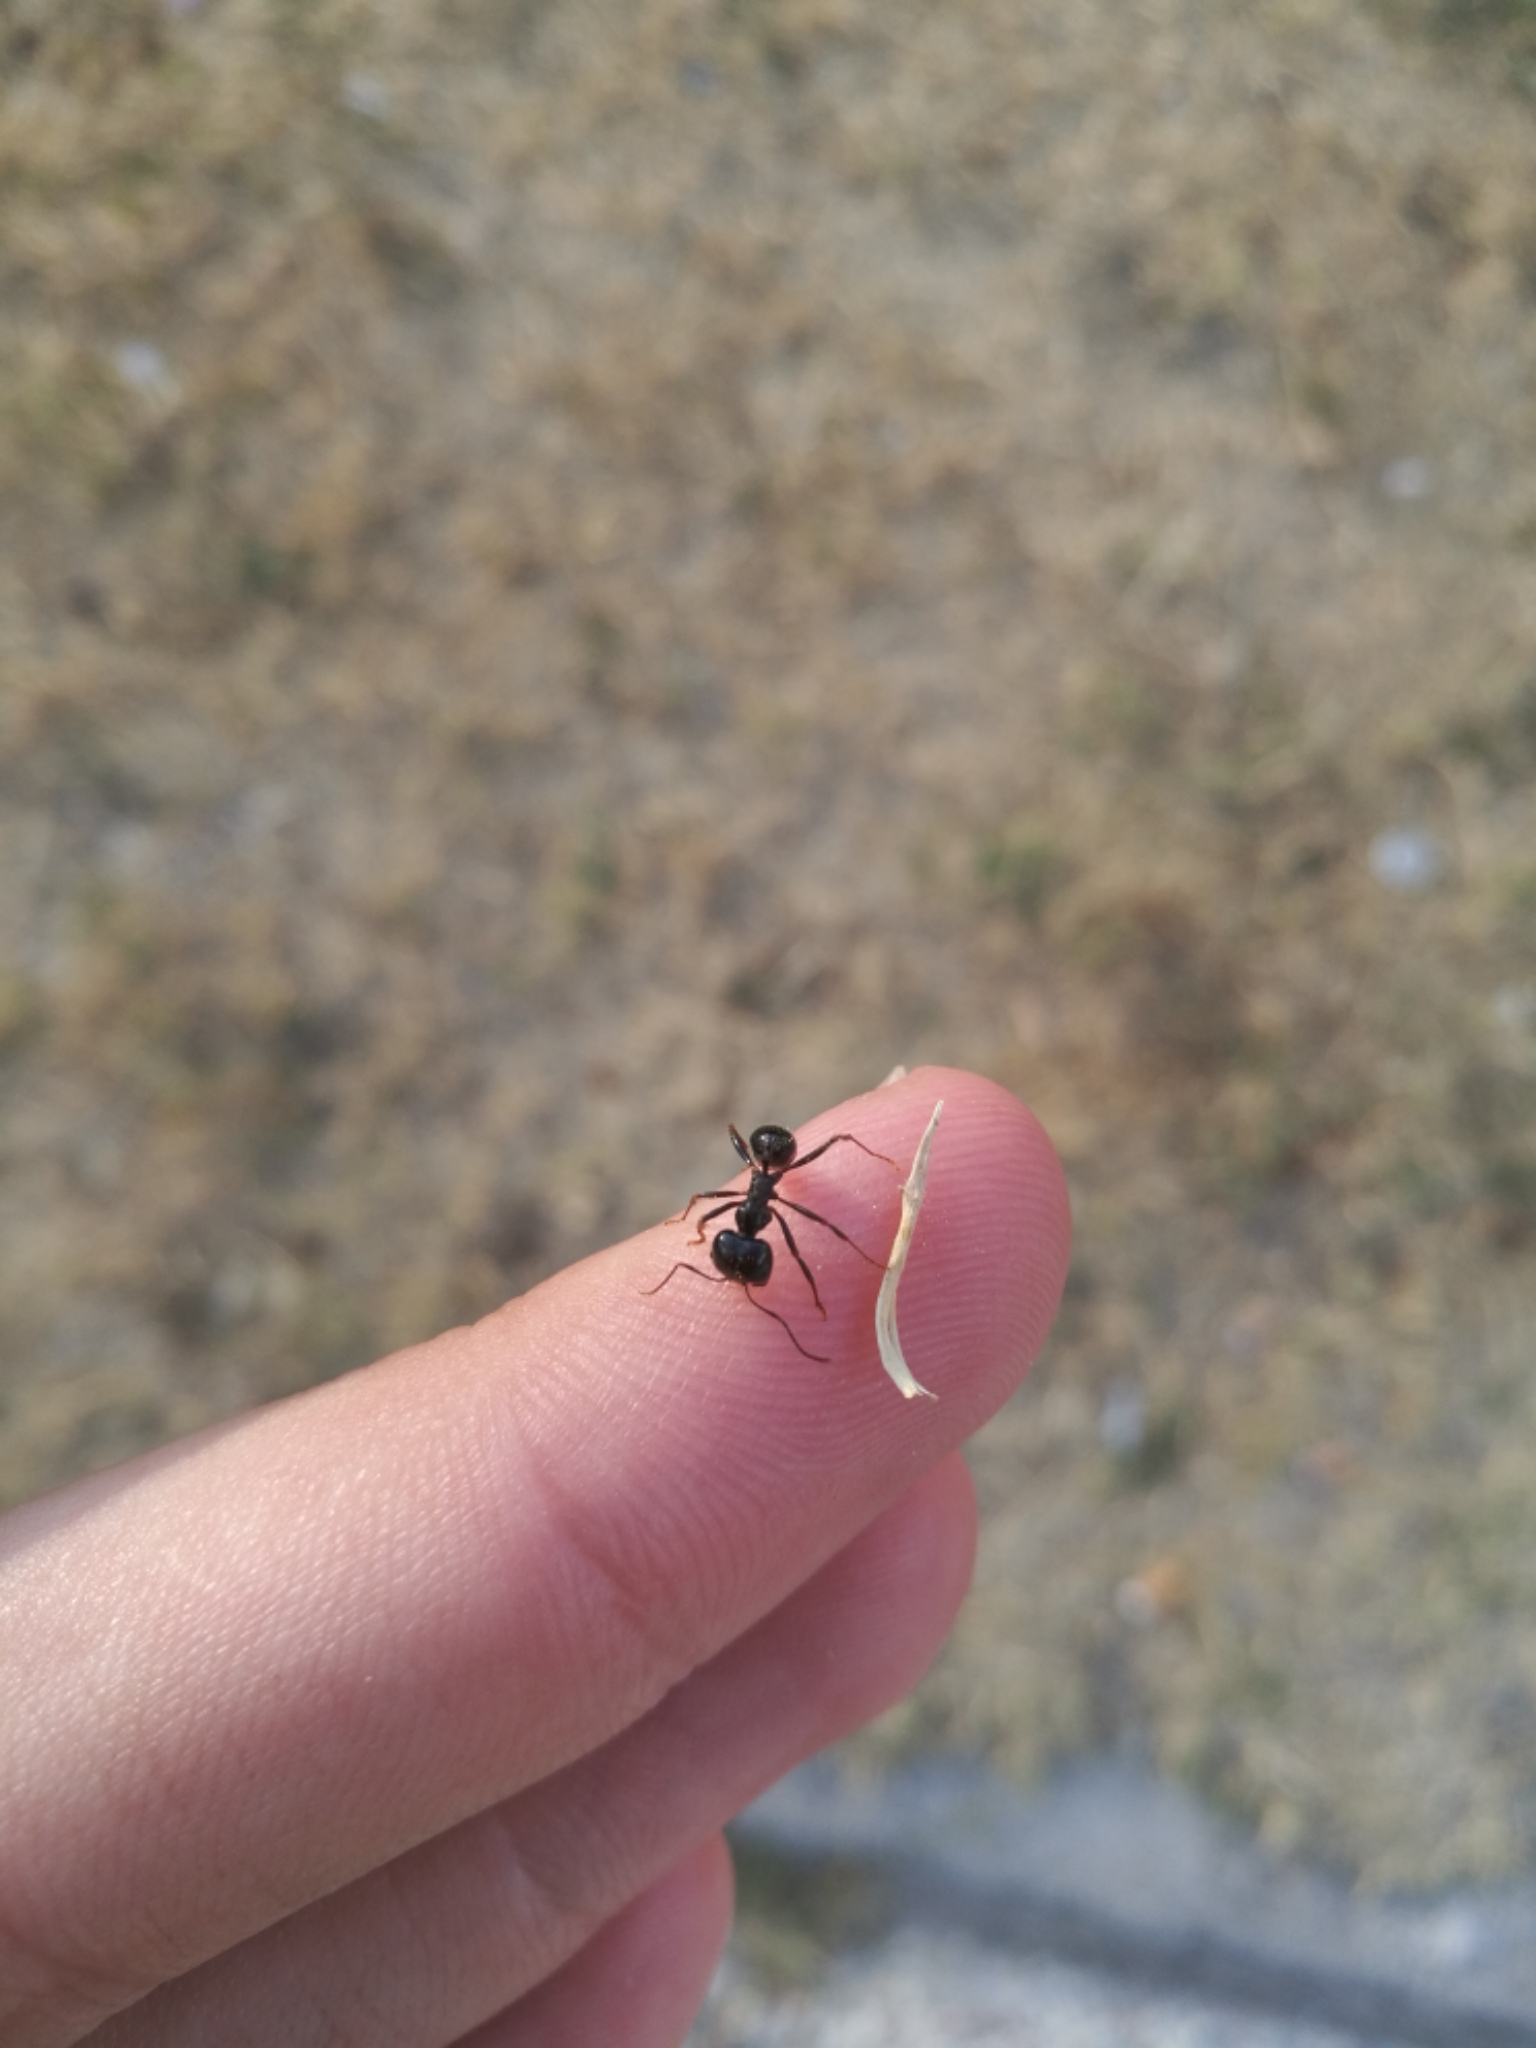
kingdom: Animalia
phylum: Arthropoda
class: Insecta
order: Hymenoptera
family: Formicidae
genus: Messor
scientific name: Messor capitatus
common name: European seed harvesting ant
